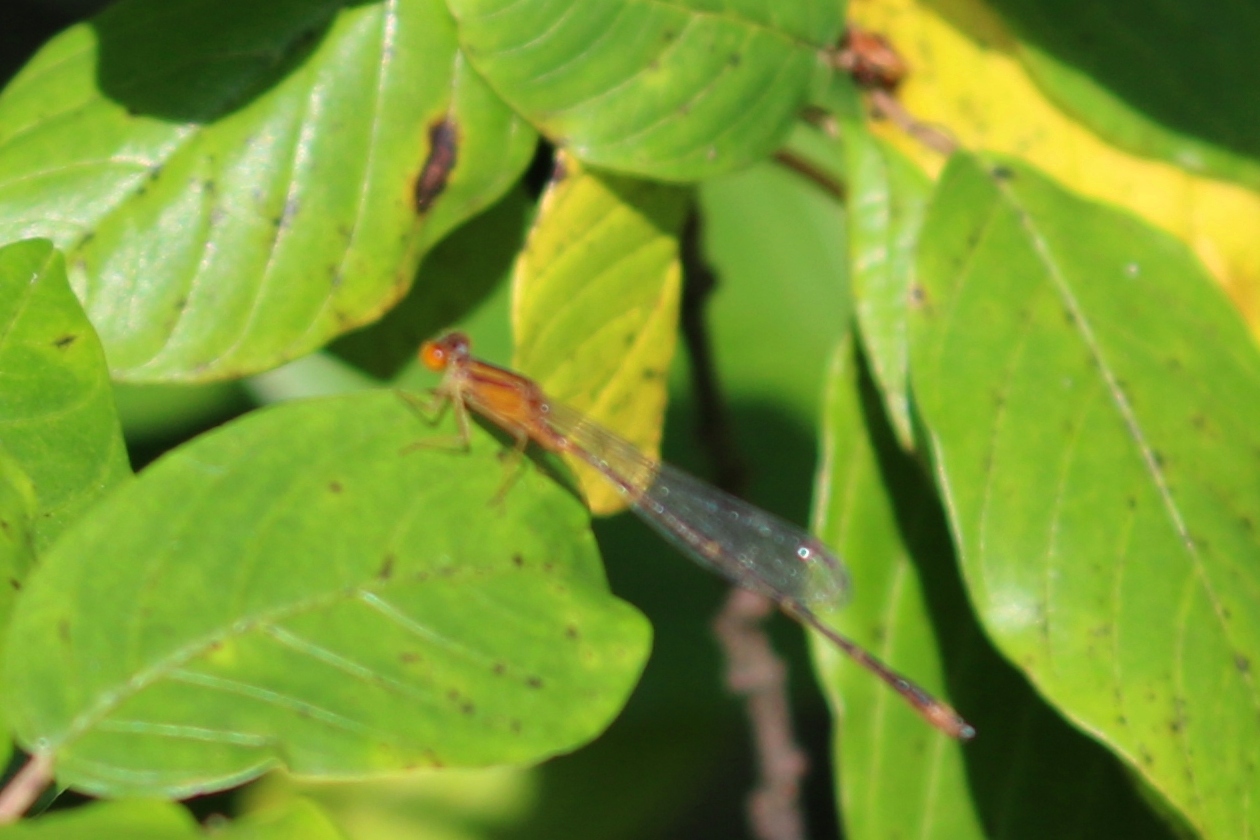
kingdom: Animalia
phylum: Arthropoda
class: Insecta
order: Odonata
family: Coenagrionidae
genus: Enallagma
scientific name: Enallagma signatum
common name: Orange bluet
